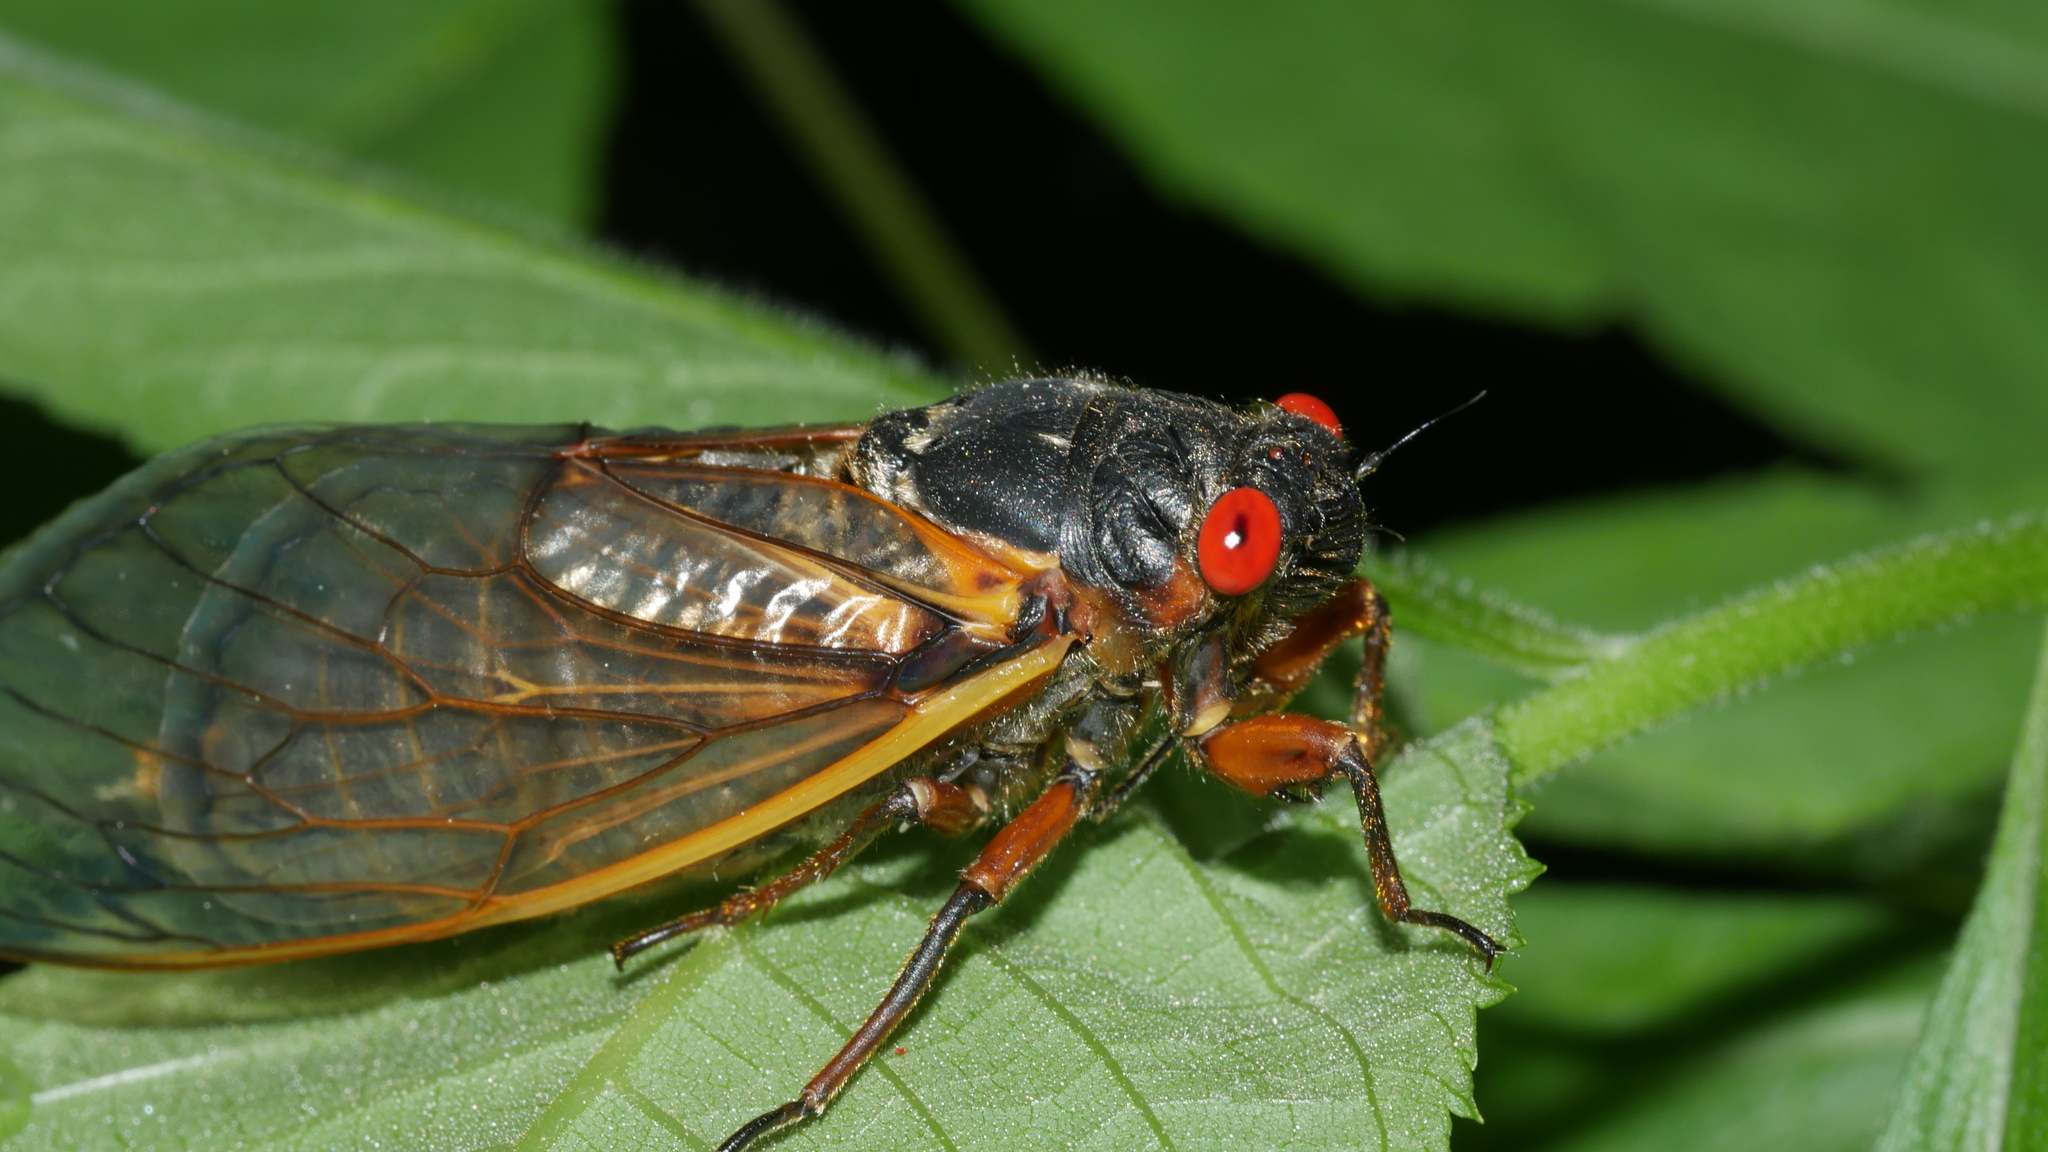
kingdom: Animalia
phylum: Arthropoda
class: Insecta
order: Hemiptera
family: Cicadidae
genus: Magicicada
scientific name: Magicicada septendecim
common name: Periodical cicada
